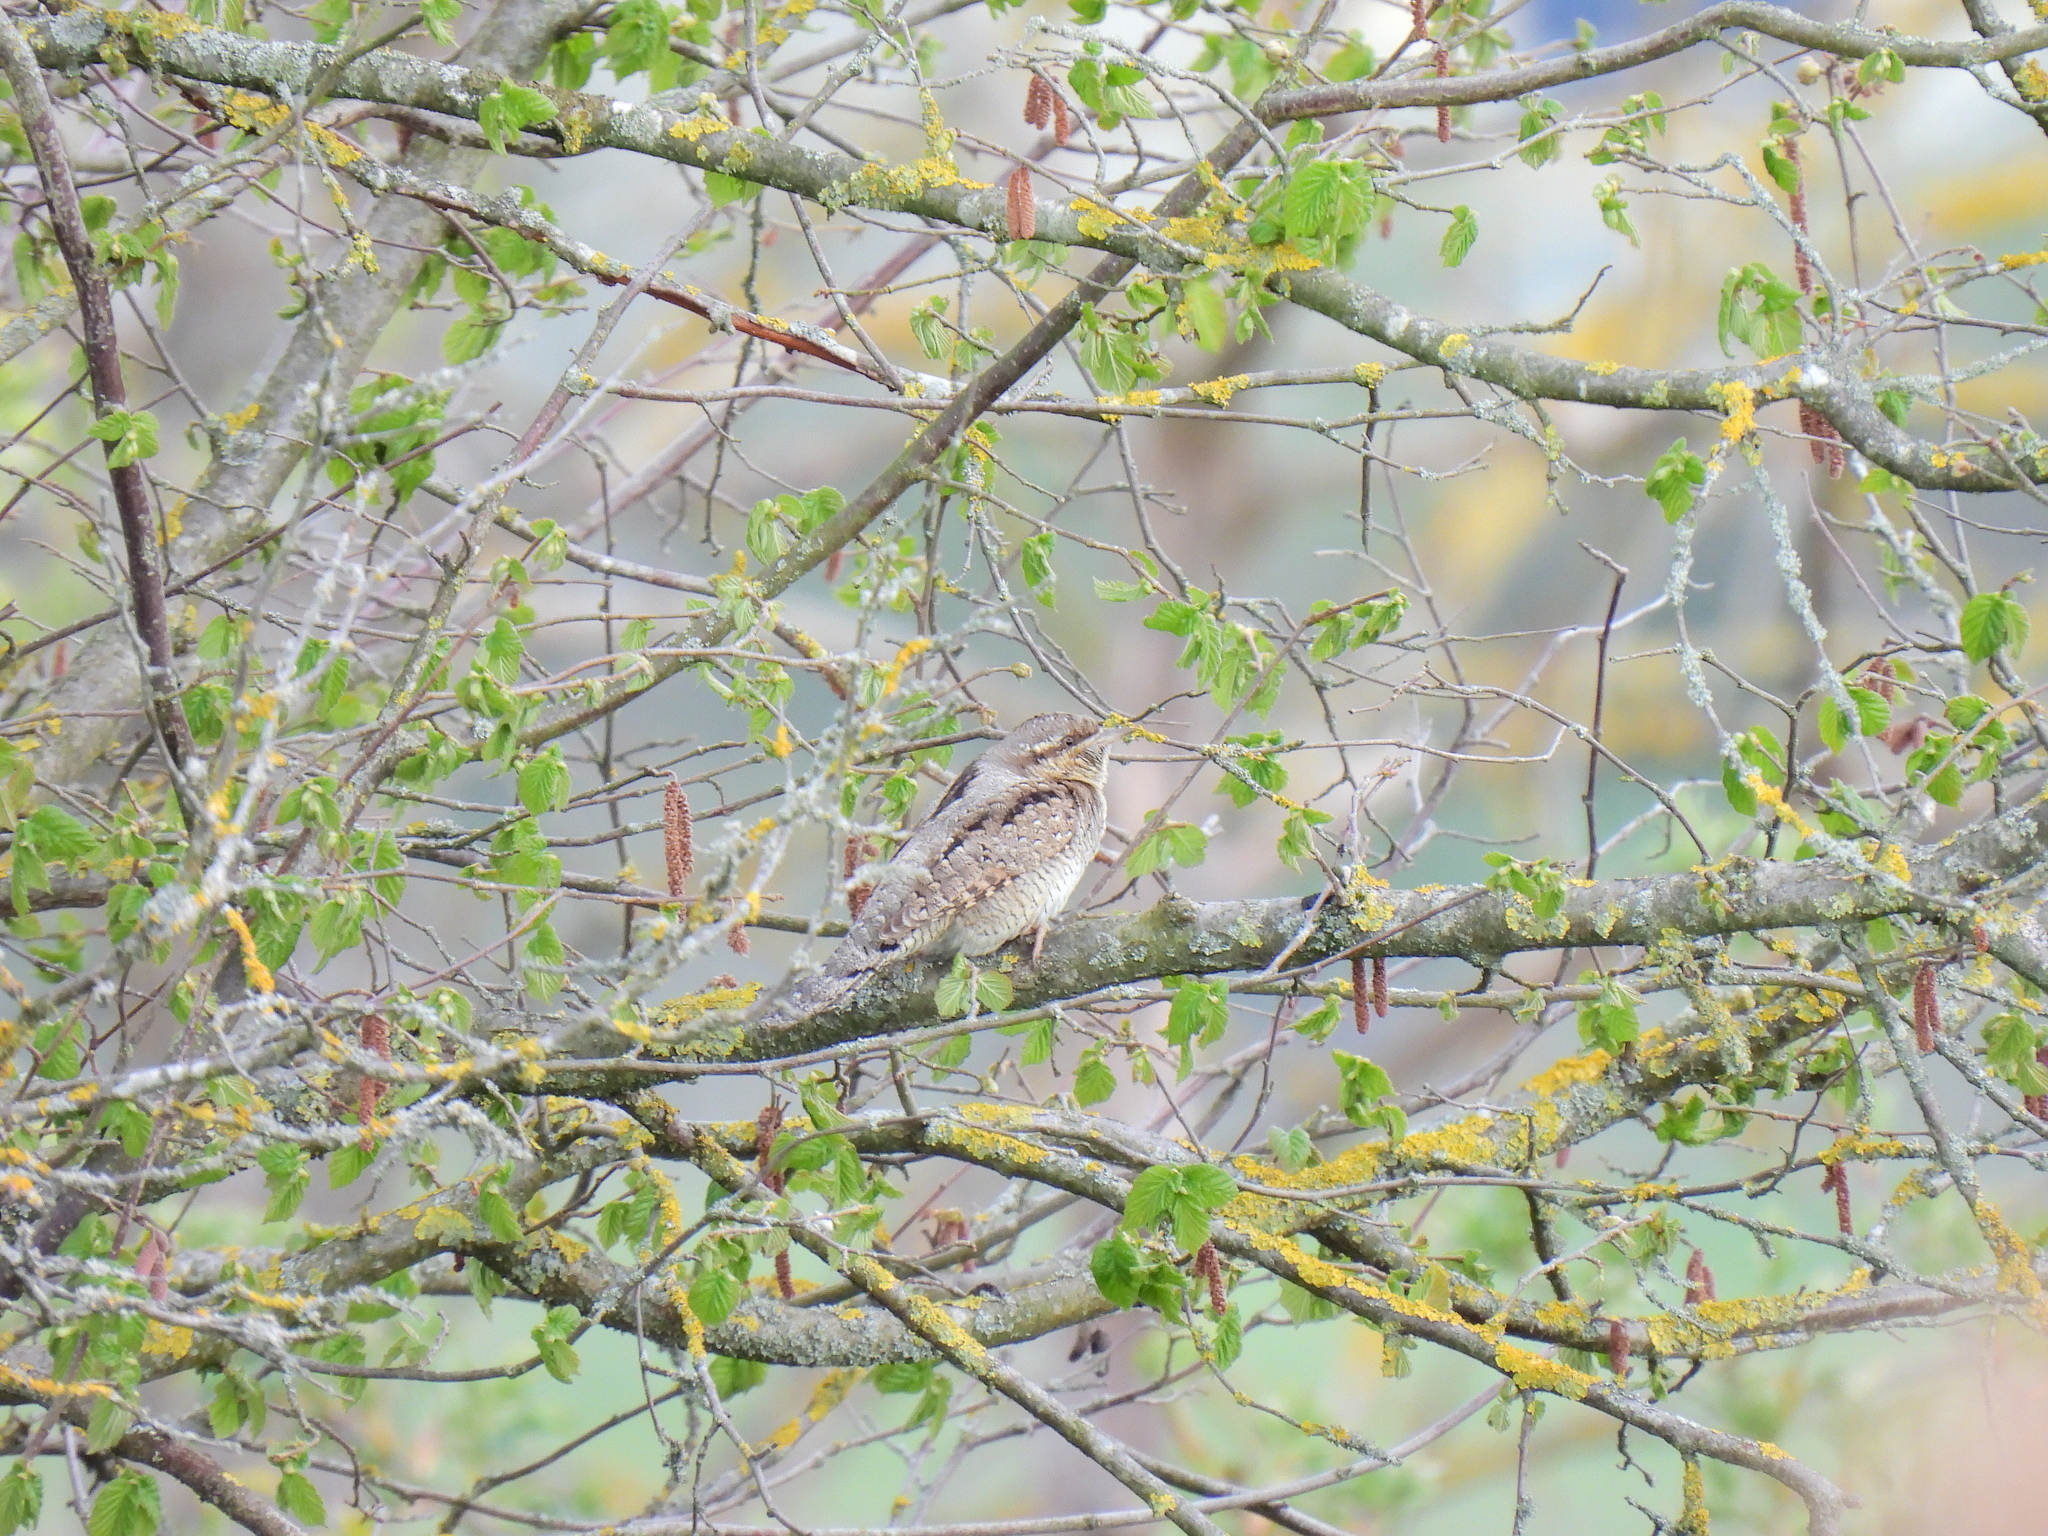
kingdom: Animalia
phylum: Chordata
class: Aves
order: Piciformes
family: Picidae
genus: Jynx
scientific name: Jynx torquilla
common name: Eurasian wryneck
